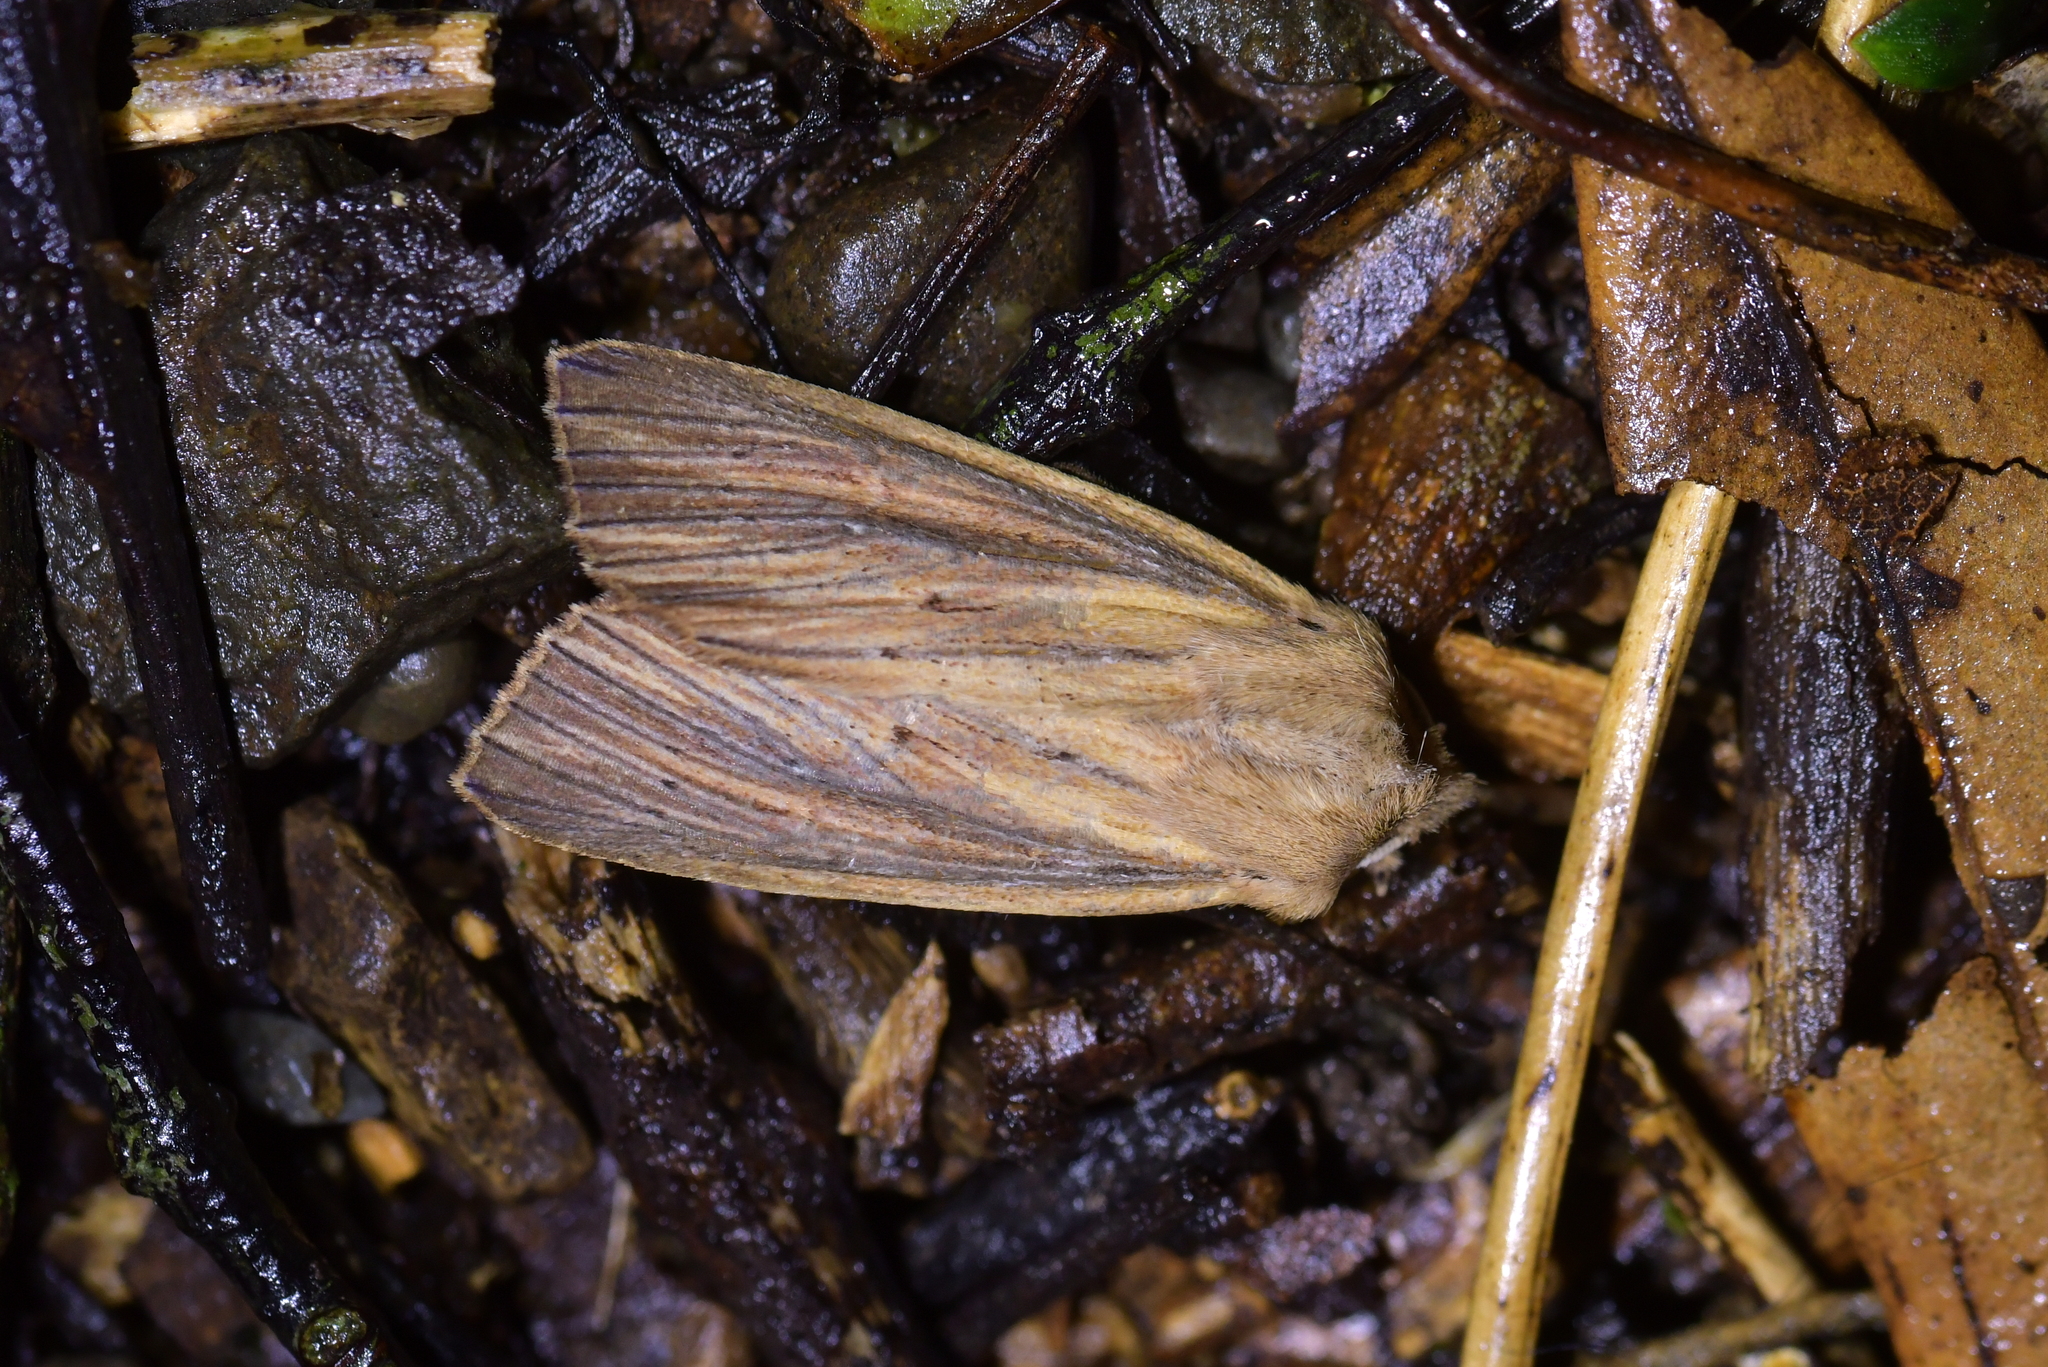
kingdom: Animalia
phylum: Arthropoda
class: Insecta
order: Lepidoptera
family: Noctuidae
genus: Ichneutica
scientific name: Ichneutica arotis
